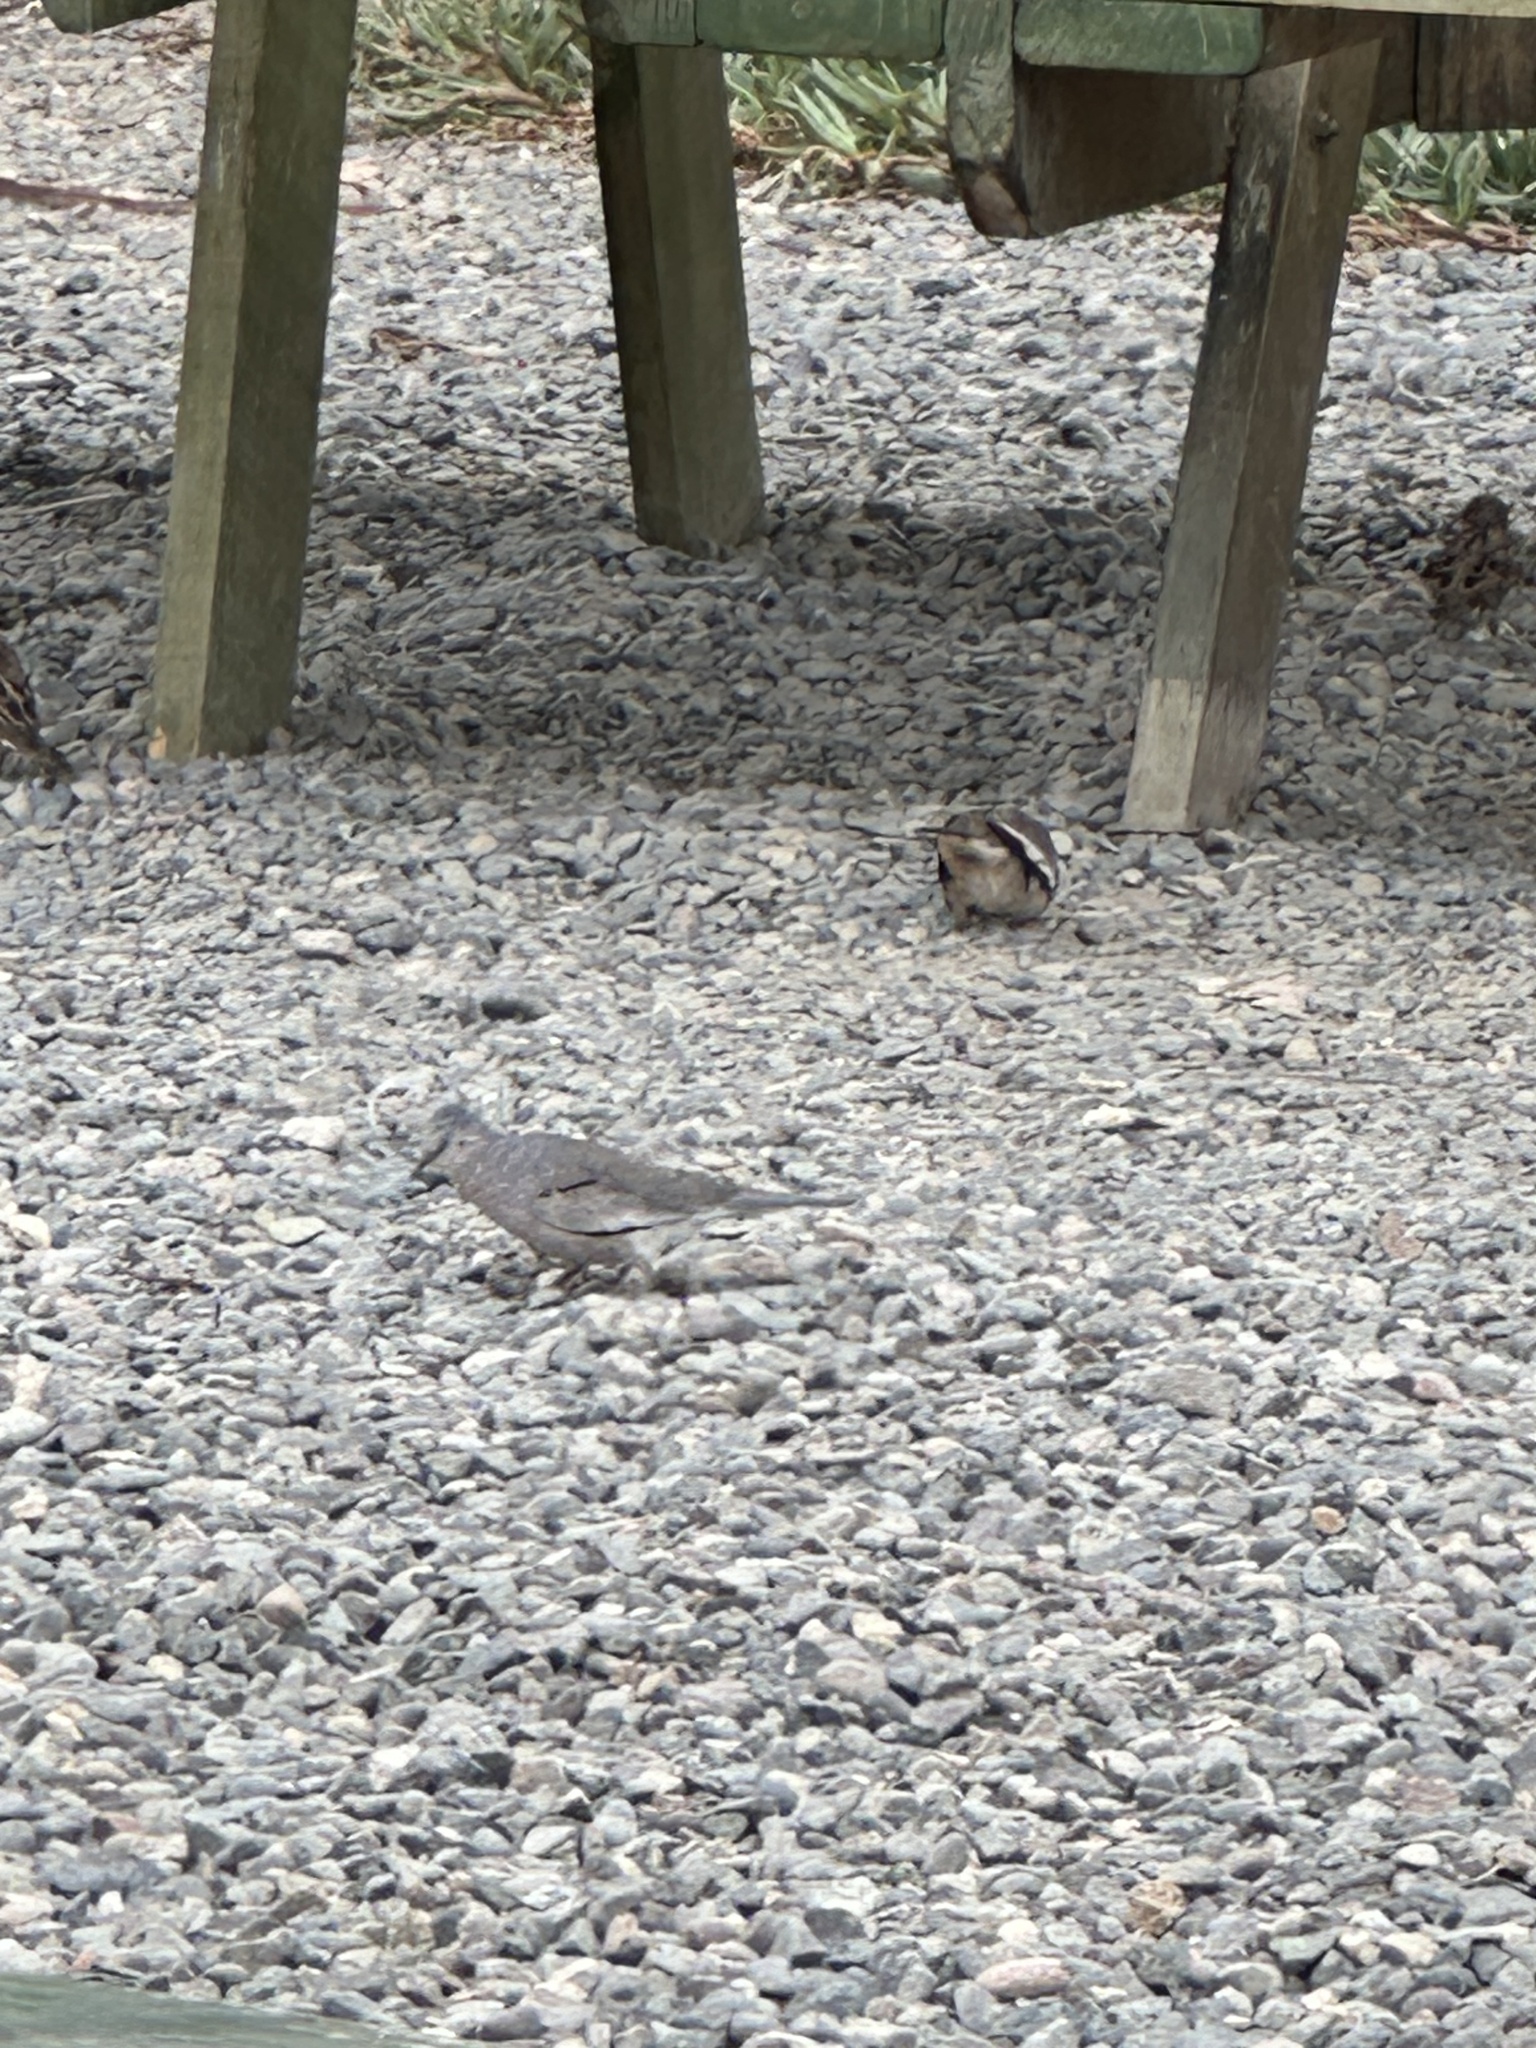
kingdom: Animalia
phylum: Chordata
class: Aves
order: Columbiformes
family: Columbidae
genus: Columbina
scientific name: Columbina picui
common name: Picui ground dove
